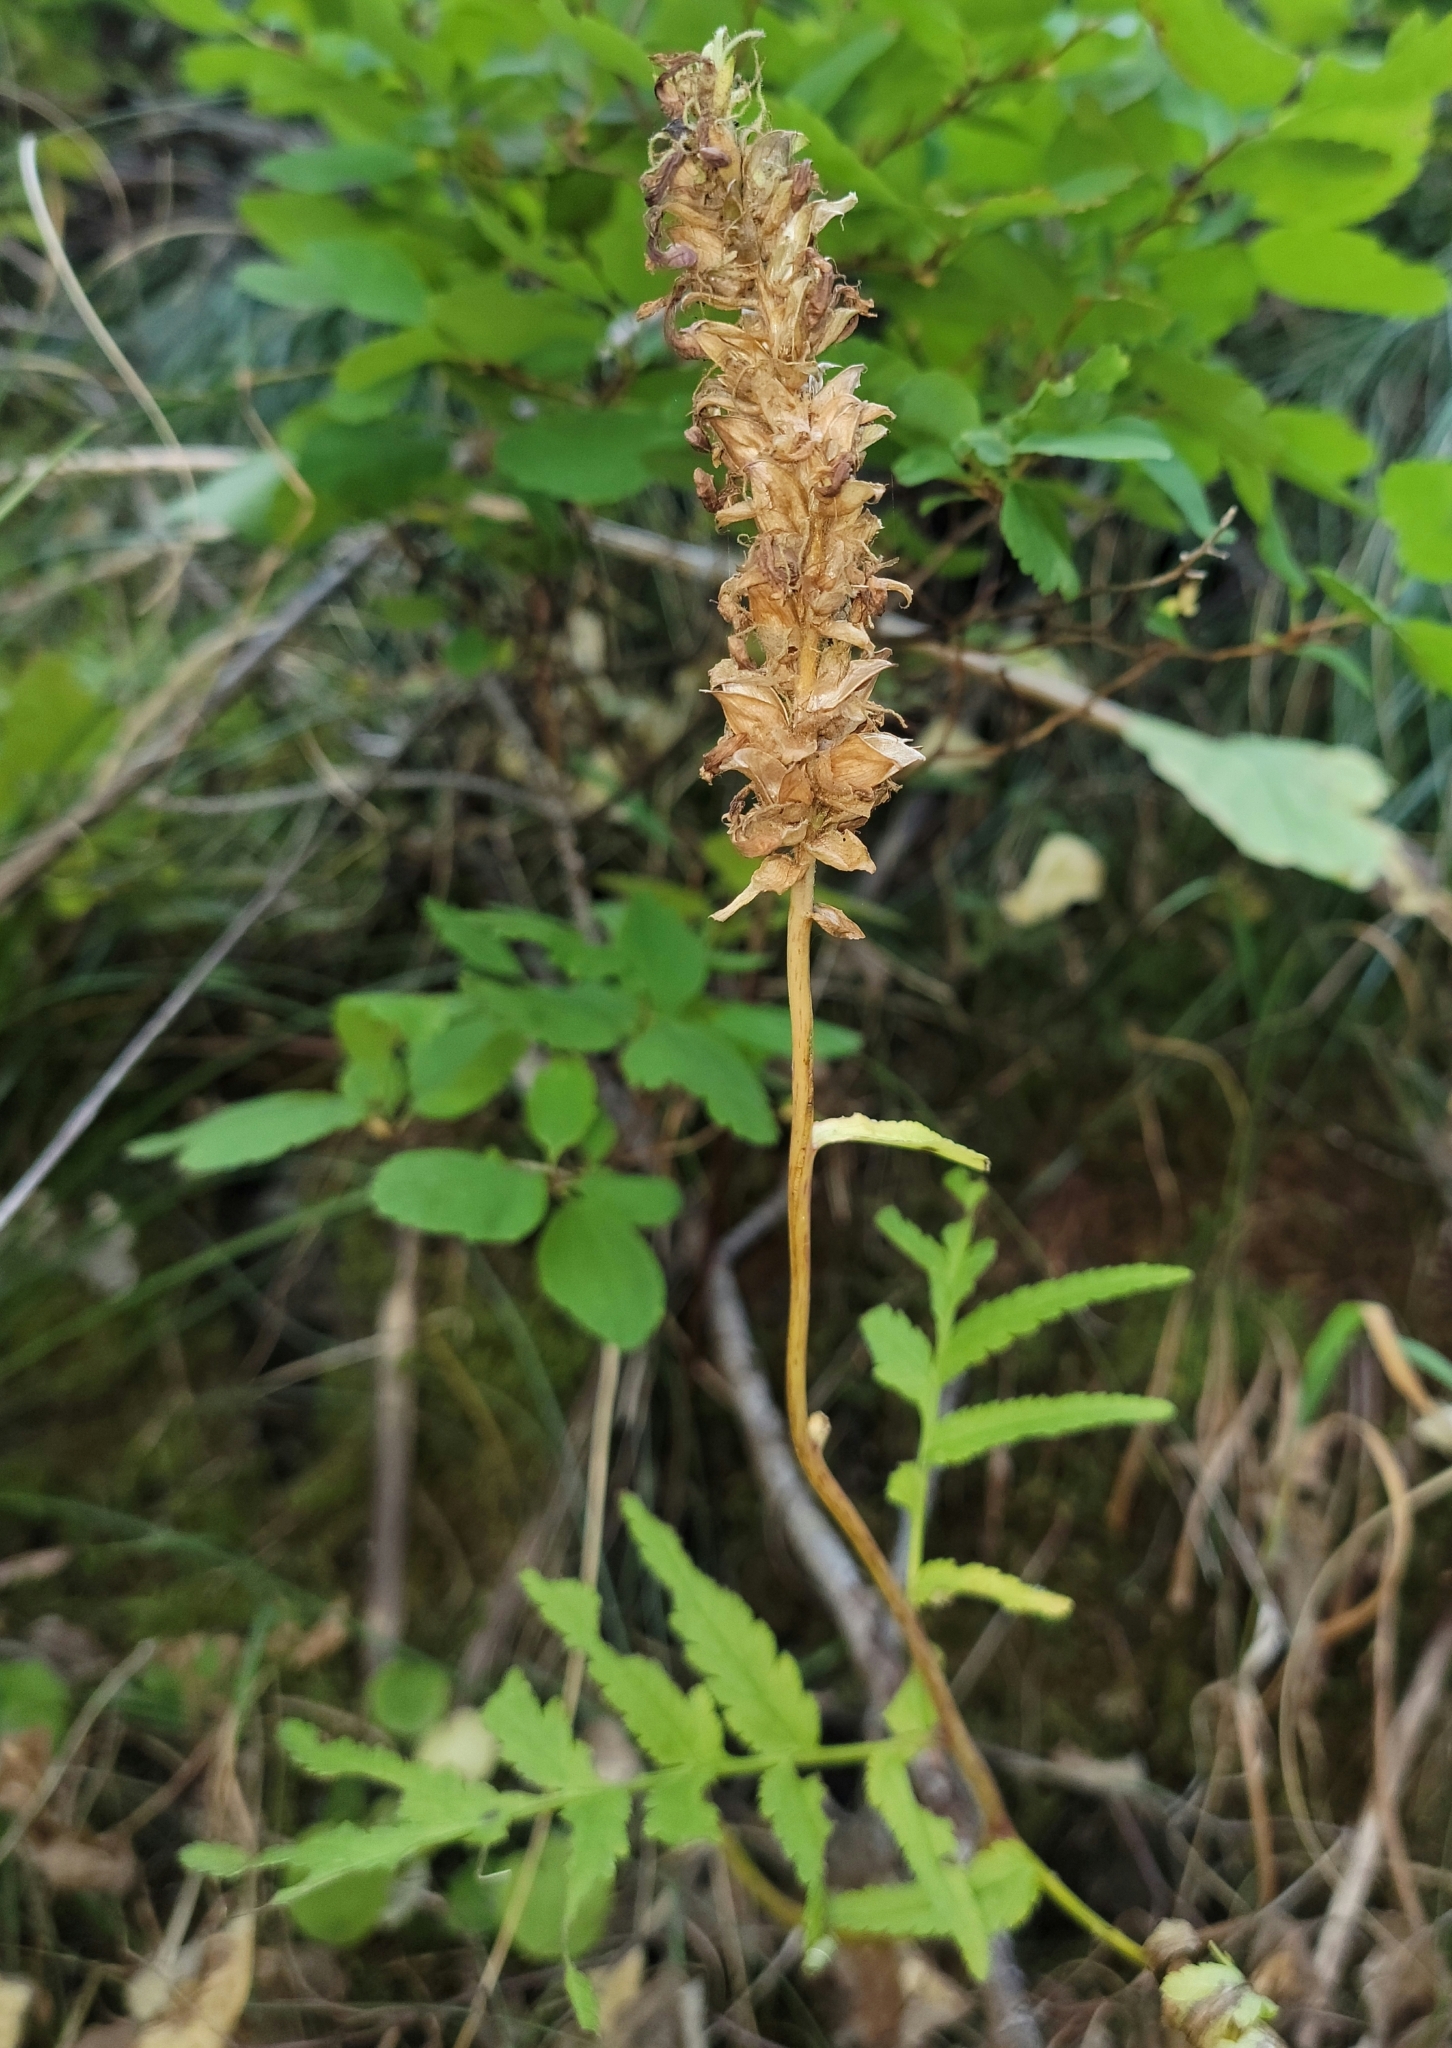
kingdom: Plantae
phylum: Tracheophyta
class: Magnoliopsida
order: Lamiales
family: Orobanchaceae
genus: Pedicularis
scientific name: Pedicularis bracteosa
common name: Bracted lousewort
